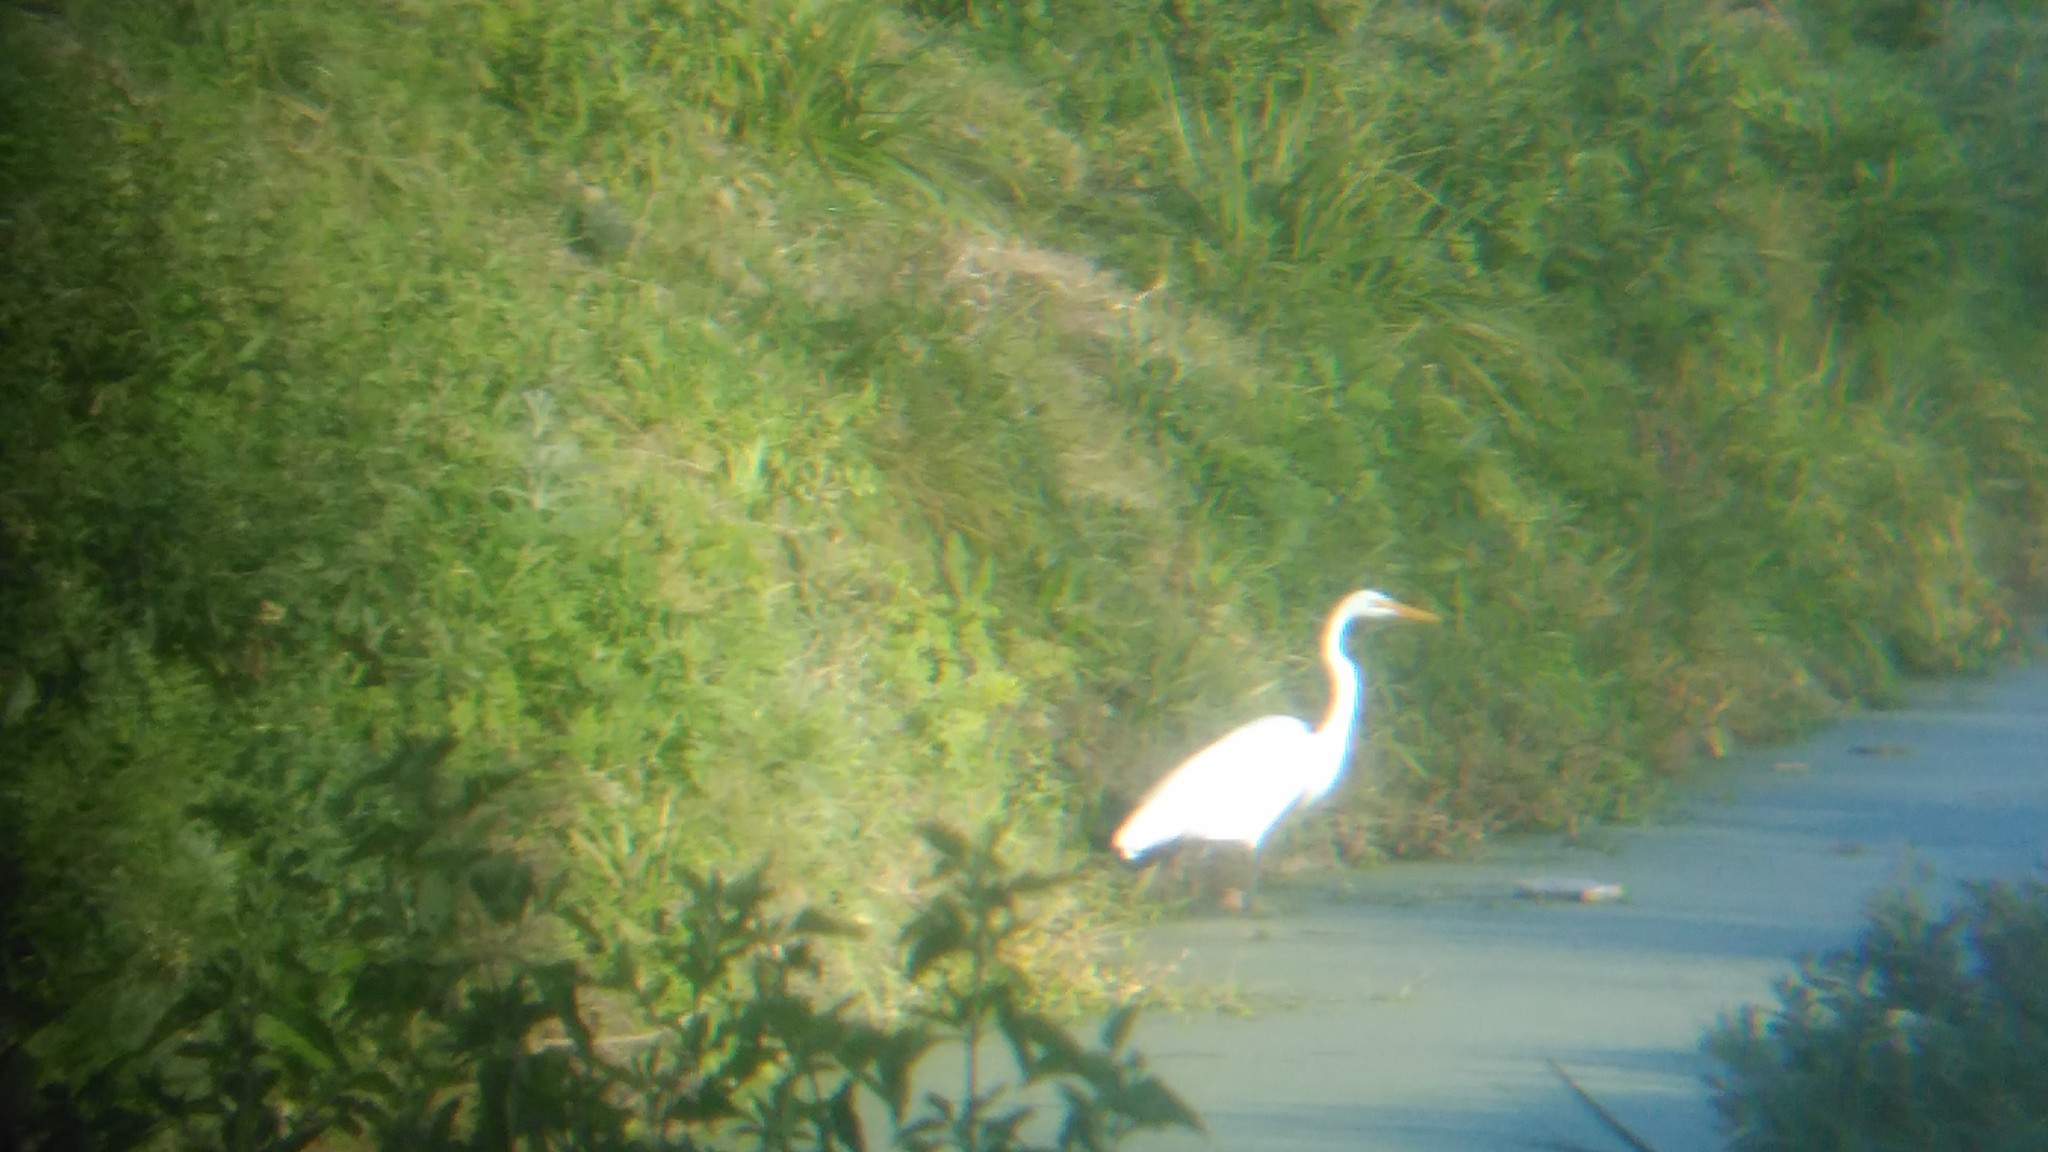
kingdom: Animalia
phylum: Chordata
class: Aves
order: Pelecaniformes
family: Ardeidae
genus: Ardea
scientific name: Ardea alba
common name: Great egret
